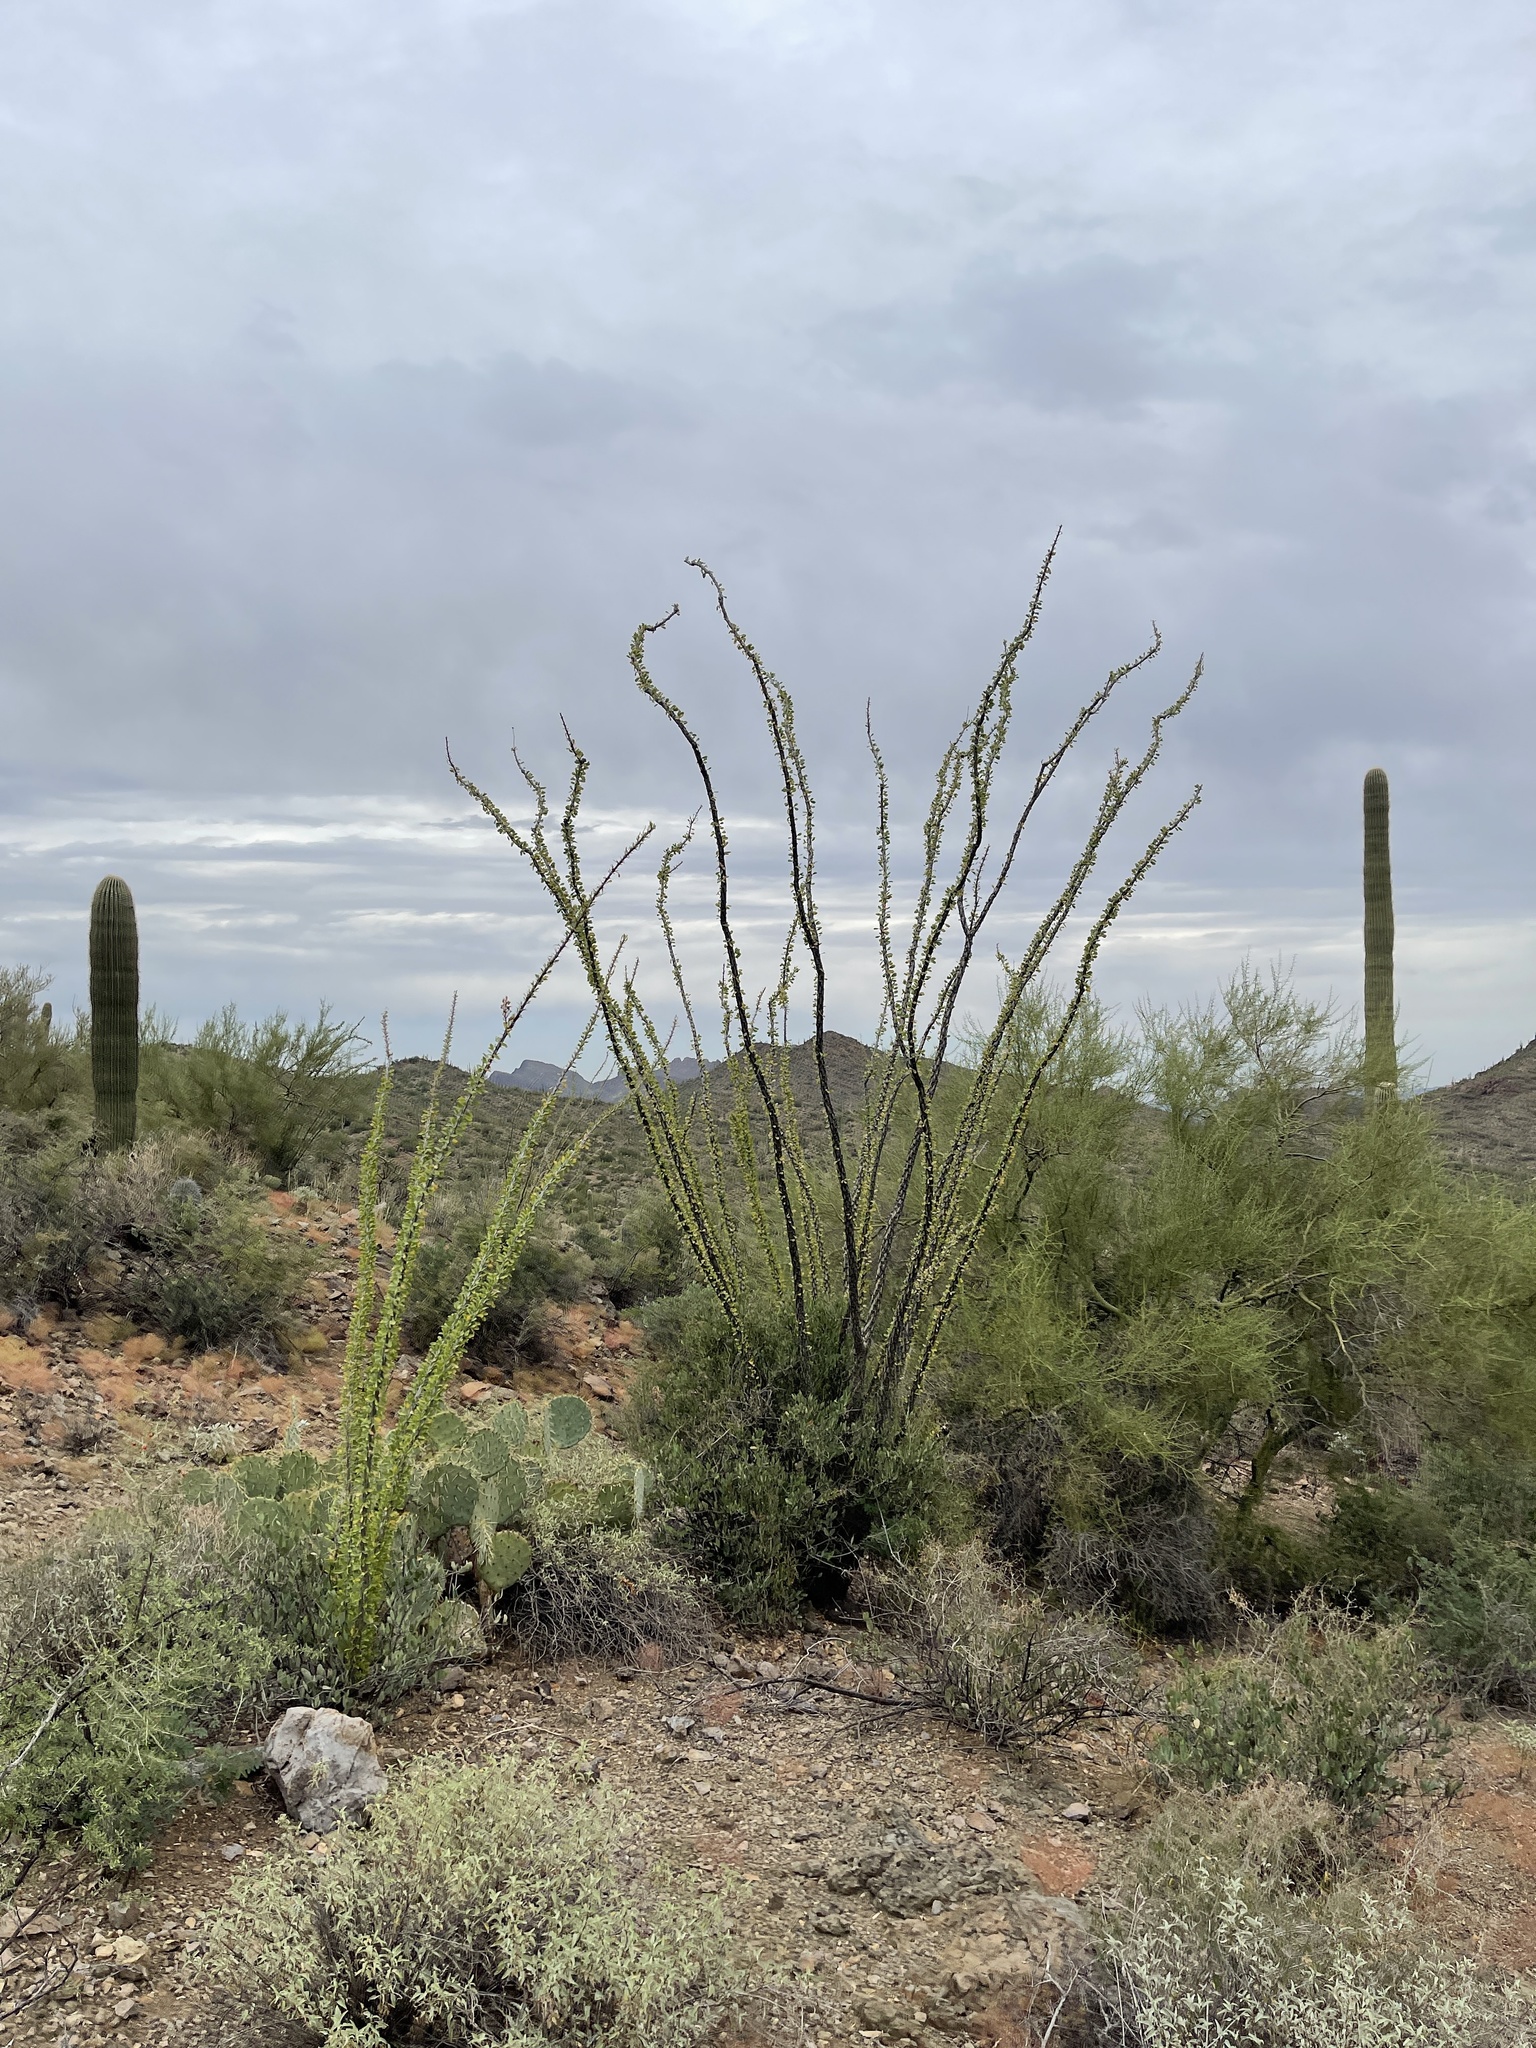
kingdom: Plantae
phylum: Tracheophyta
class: Magnoliopsida
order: Ericales
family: Fouquieriaceae
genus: Fouquieria
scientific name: Fouquieria splendens
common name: Vine-cactus
